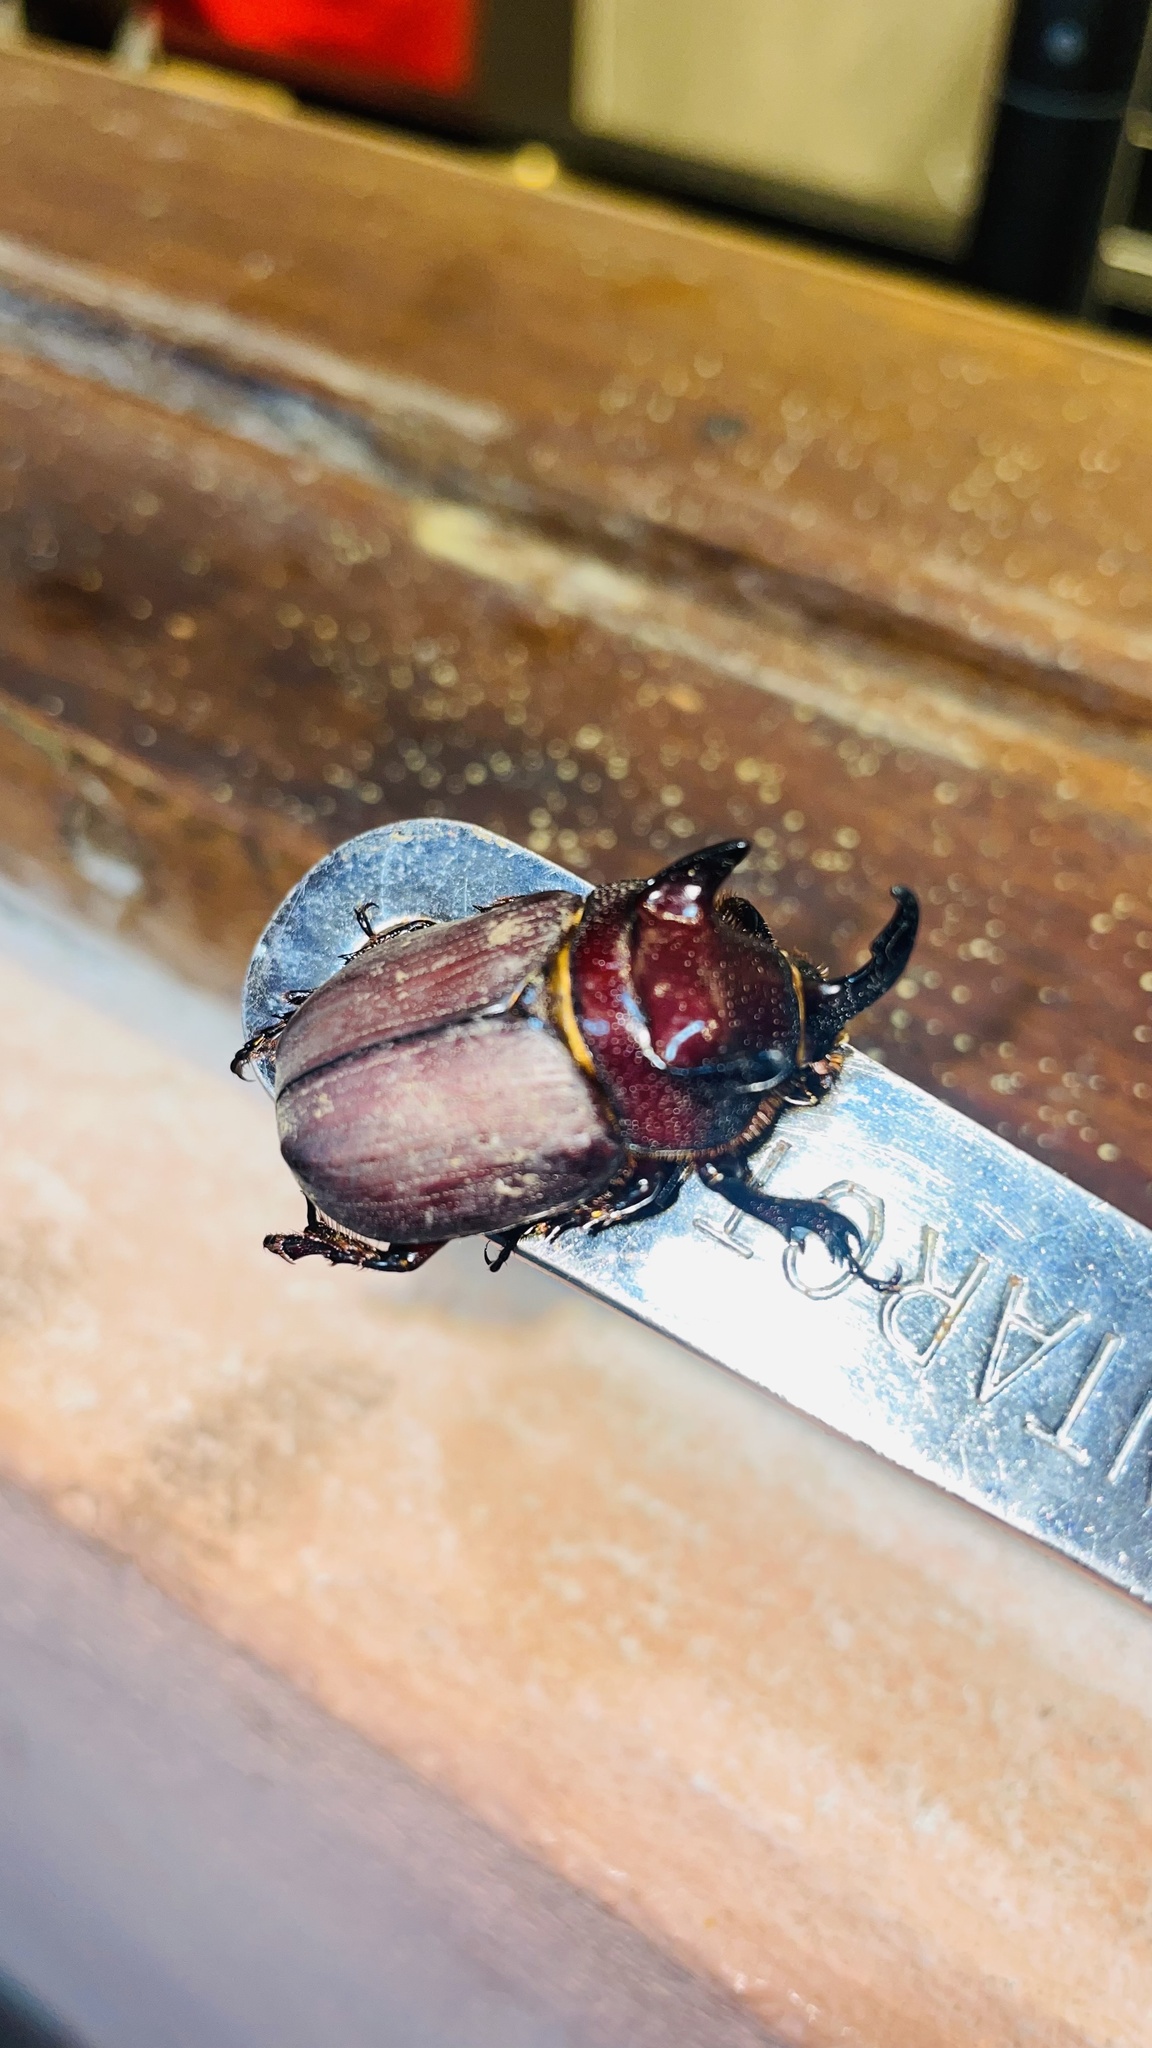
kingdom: Animalia
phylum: Arthropoda
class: Insecta
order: Coleoptera
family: Scarabaeidae
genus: Coelosis
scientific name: Coelosis bicornis
